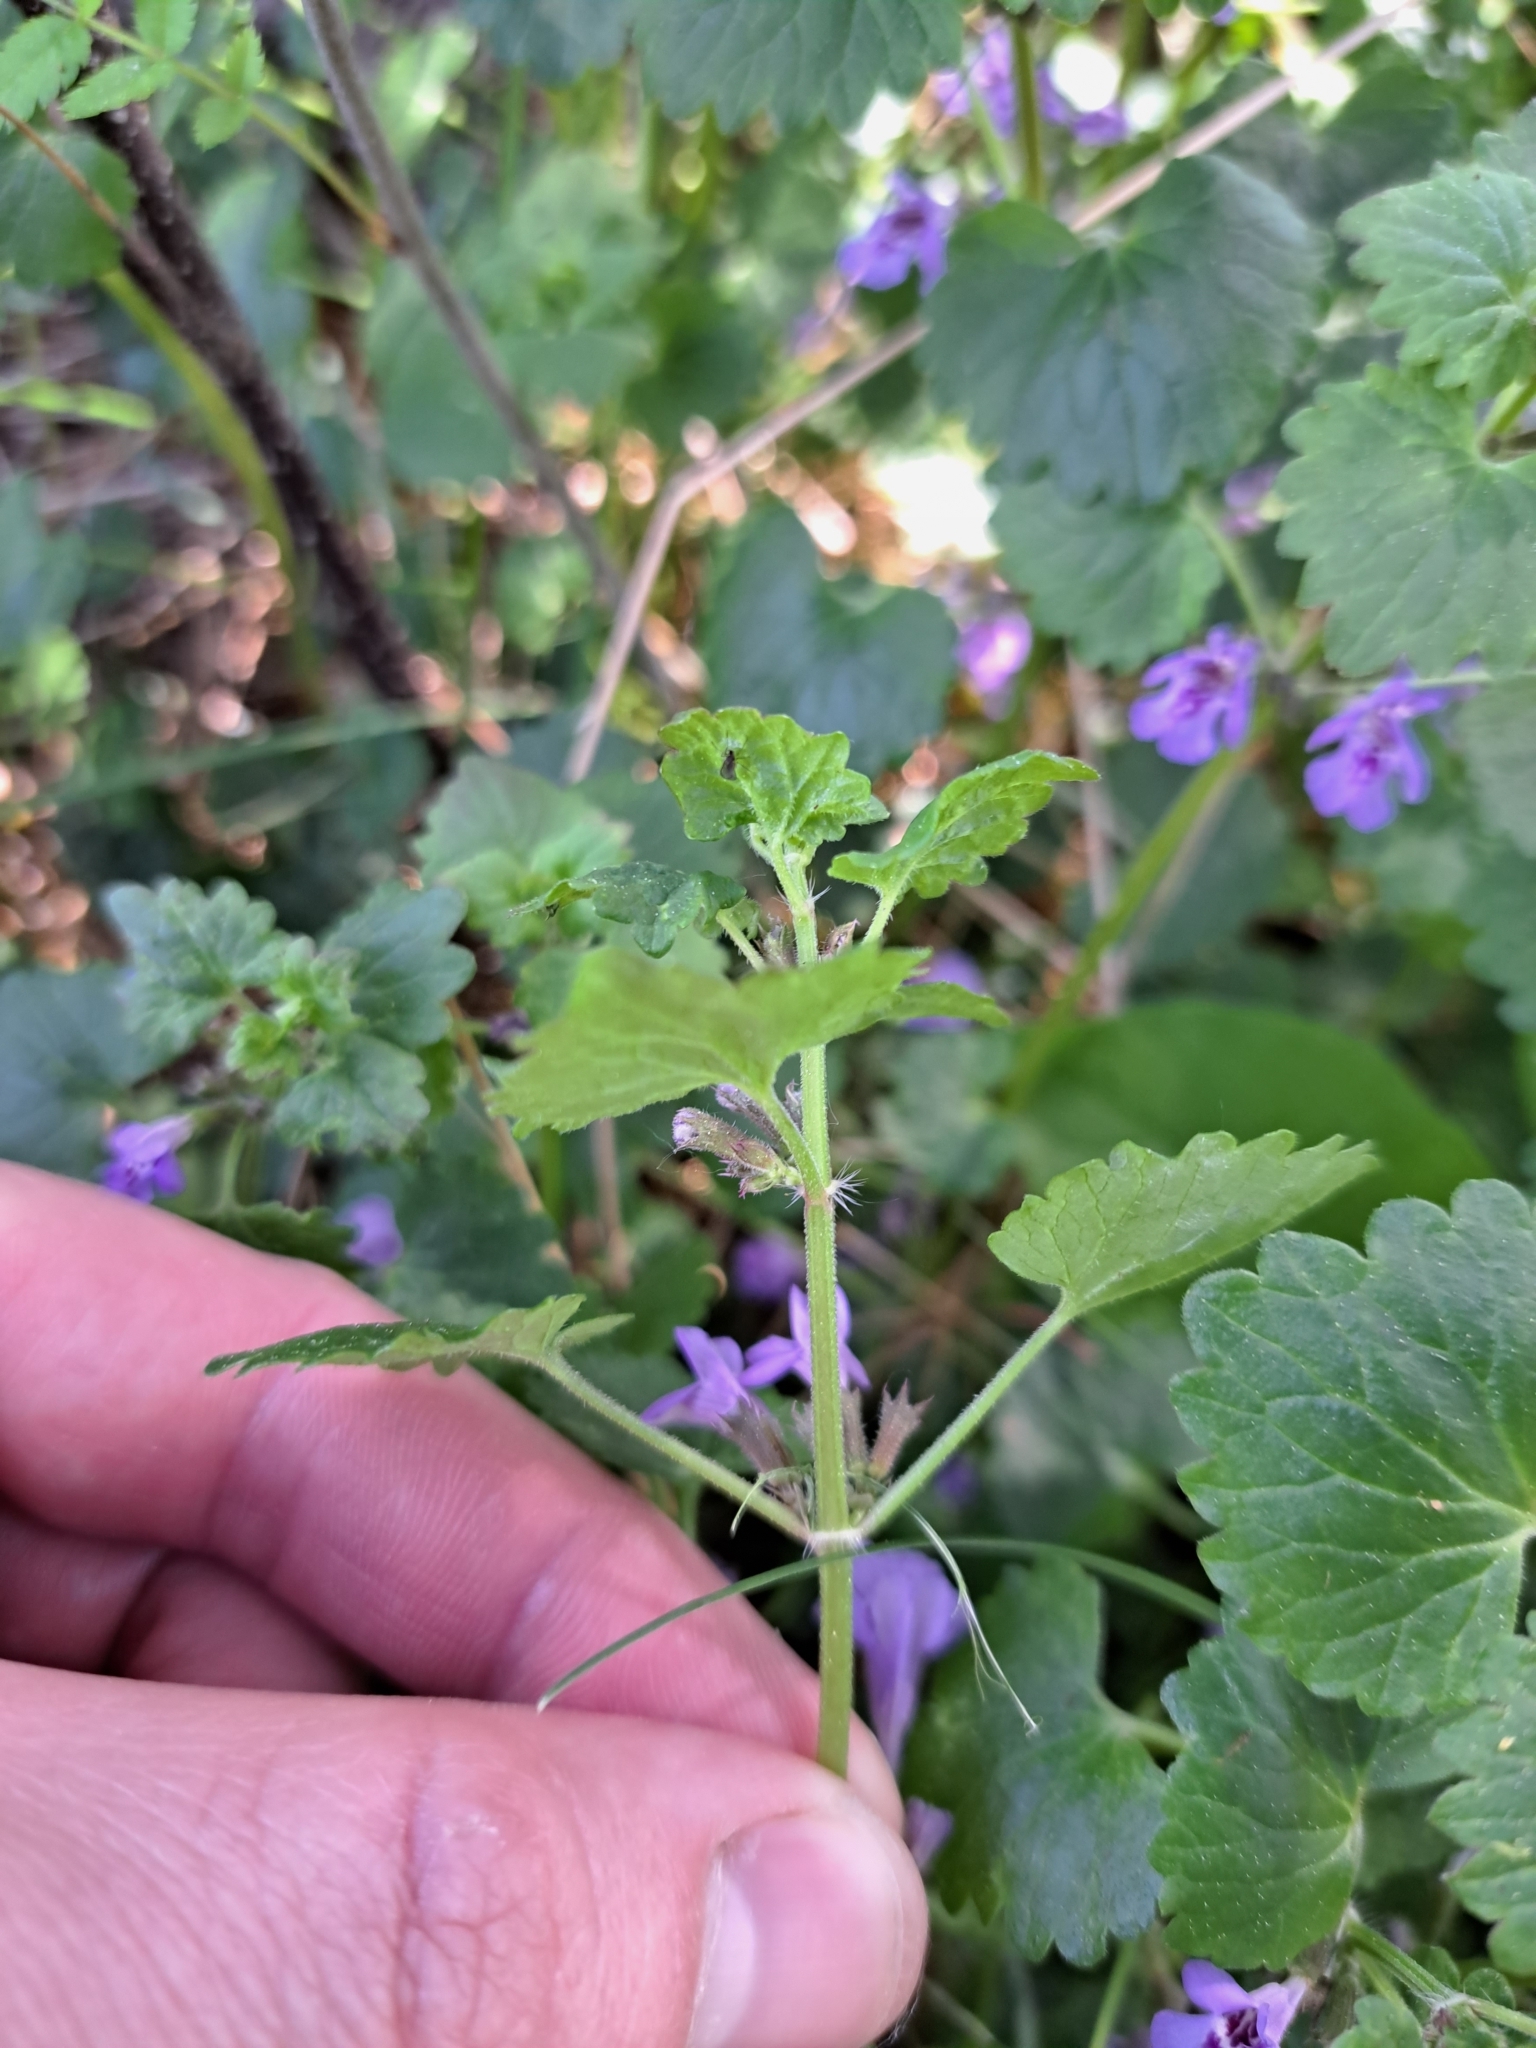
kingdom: Plantae
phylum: Tracheophyta
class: Magnoliopsida
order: Lamiales
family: Lamiaceae
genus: Glechoma
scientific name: Glechoma hederacea
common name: Ground ivy
